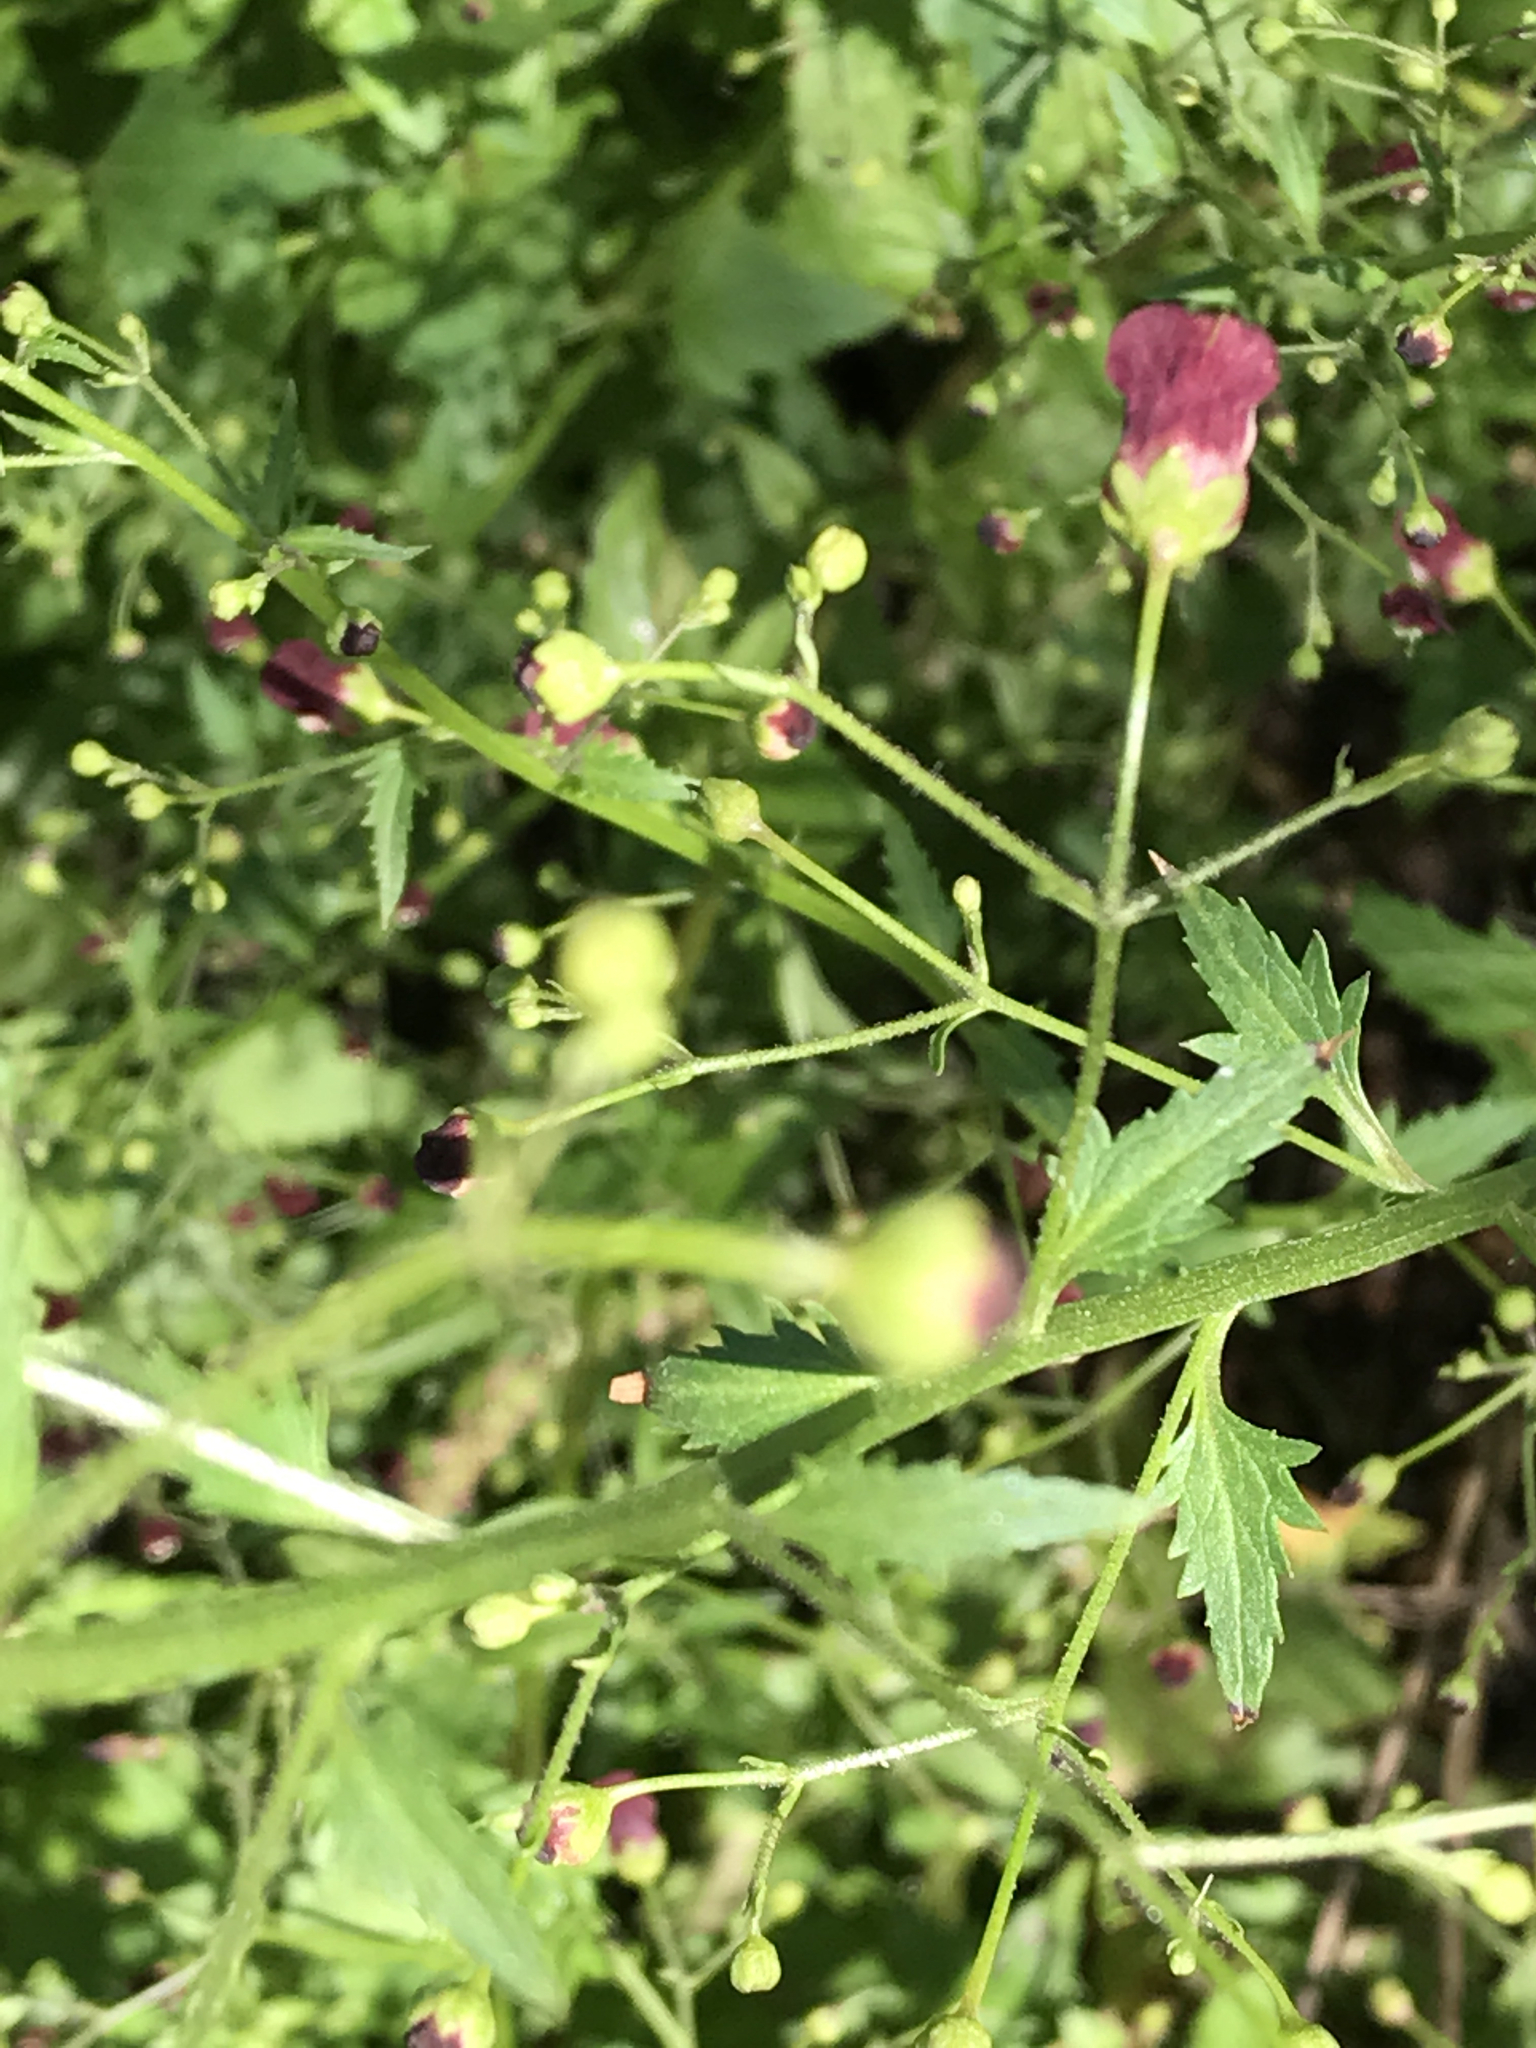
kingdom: Plantae
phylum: Tracheophyta
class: Magnoliopsida
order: Lamiales
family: Scrophulariaceae
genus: Scrophularia
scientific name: Scrophularia californica
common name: California figwort
